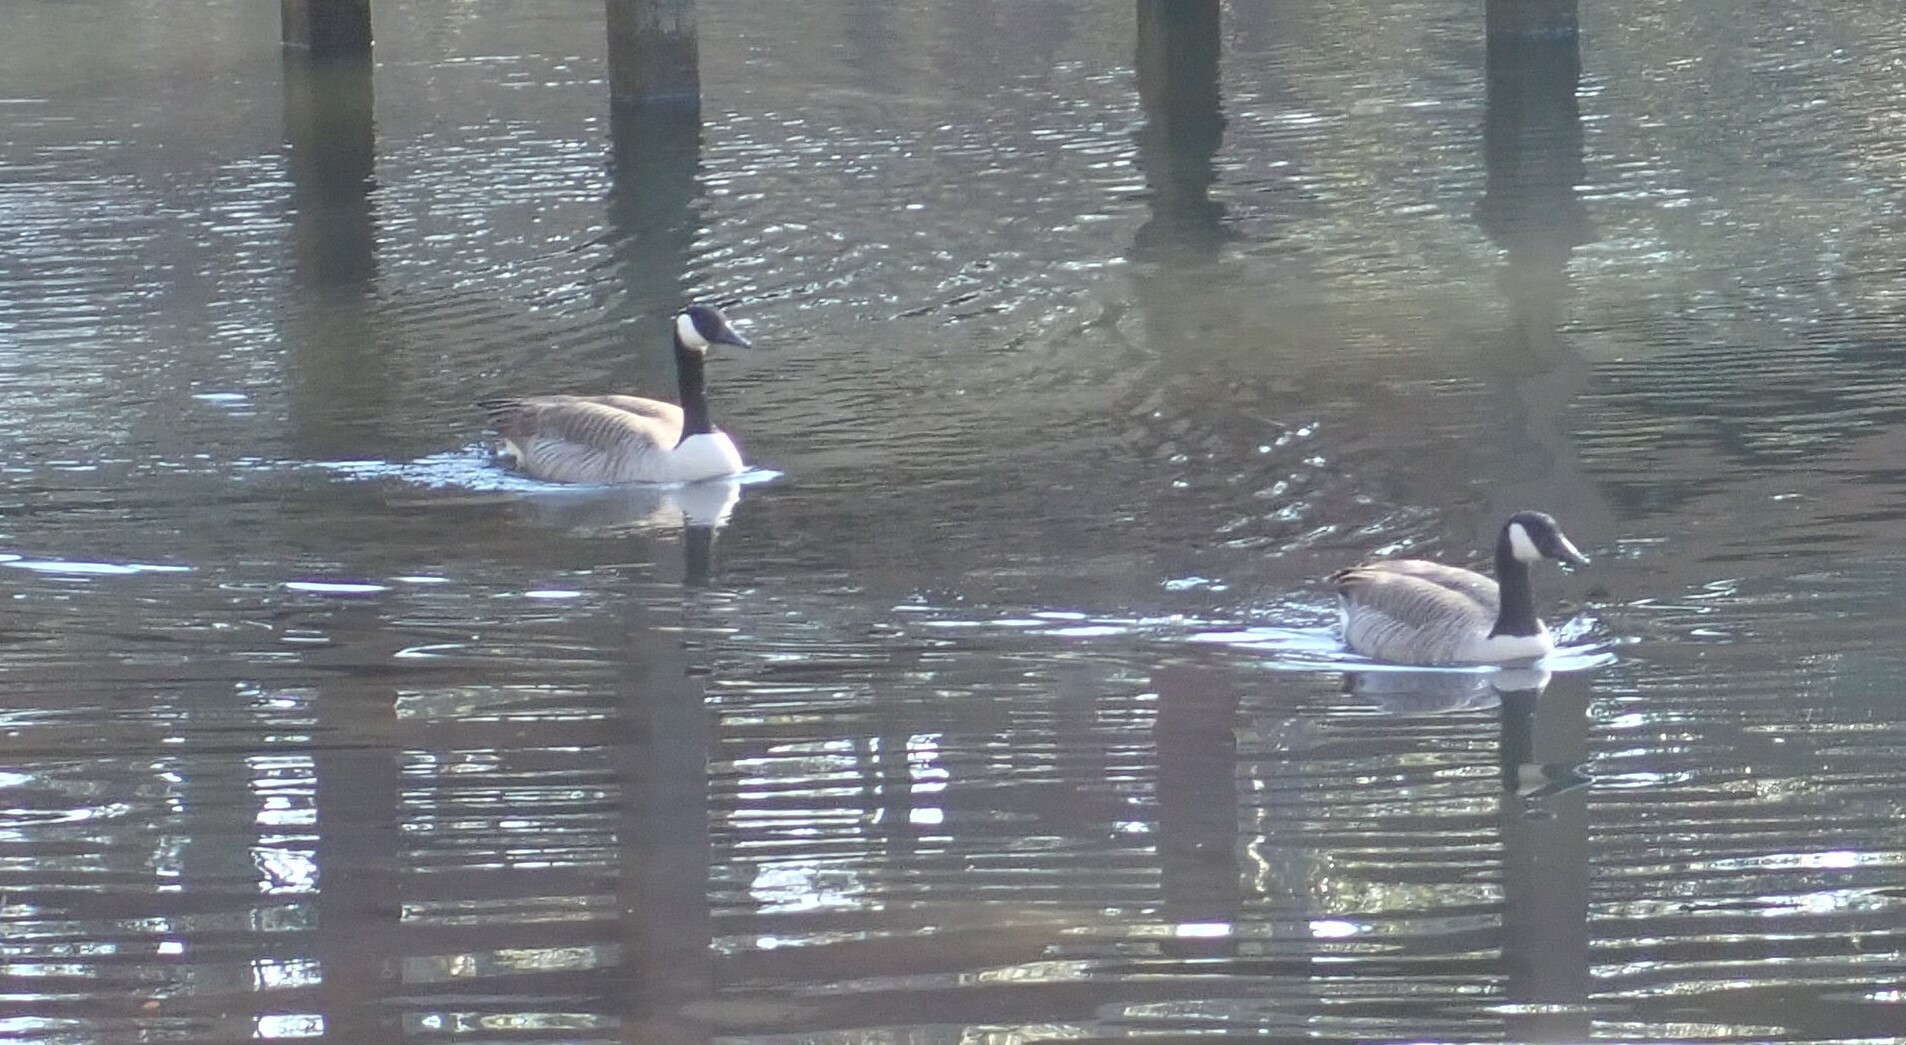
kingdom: Animalia
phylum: Chordata
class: Aves
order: Anseriformes
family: Anatidae
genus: Branta
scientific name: Branta canadensis
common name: Canada goose
